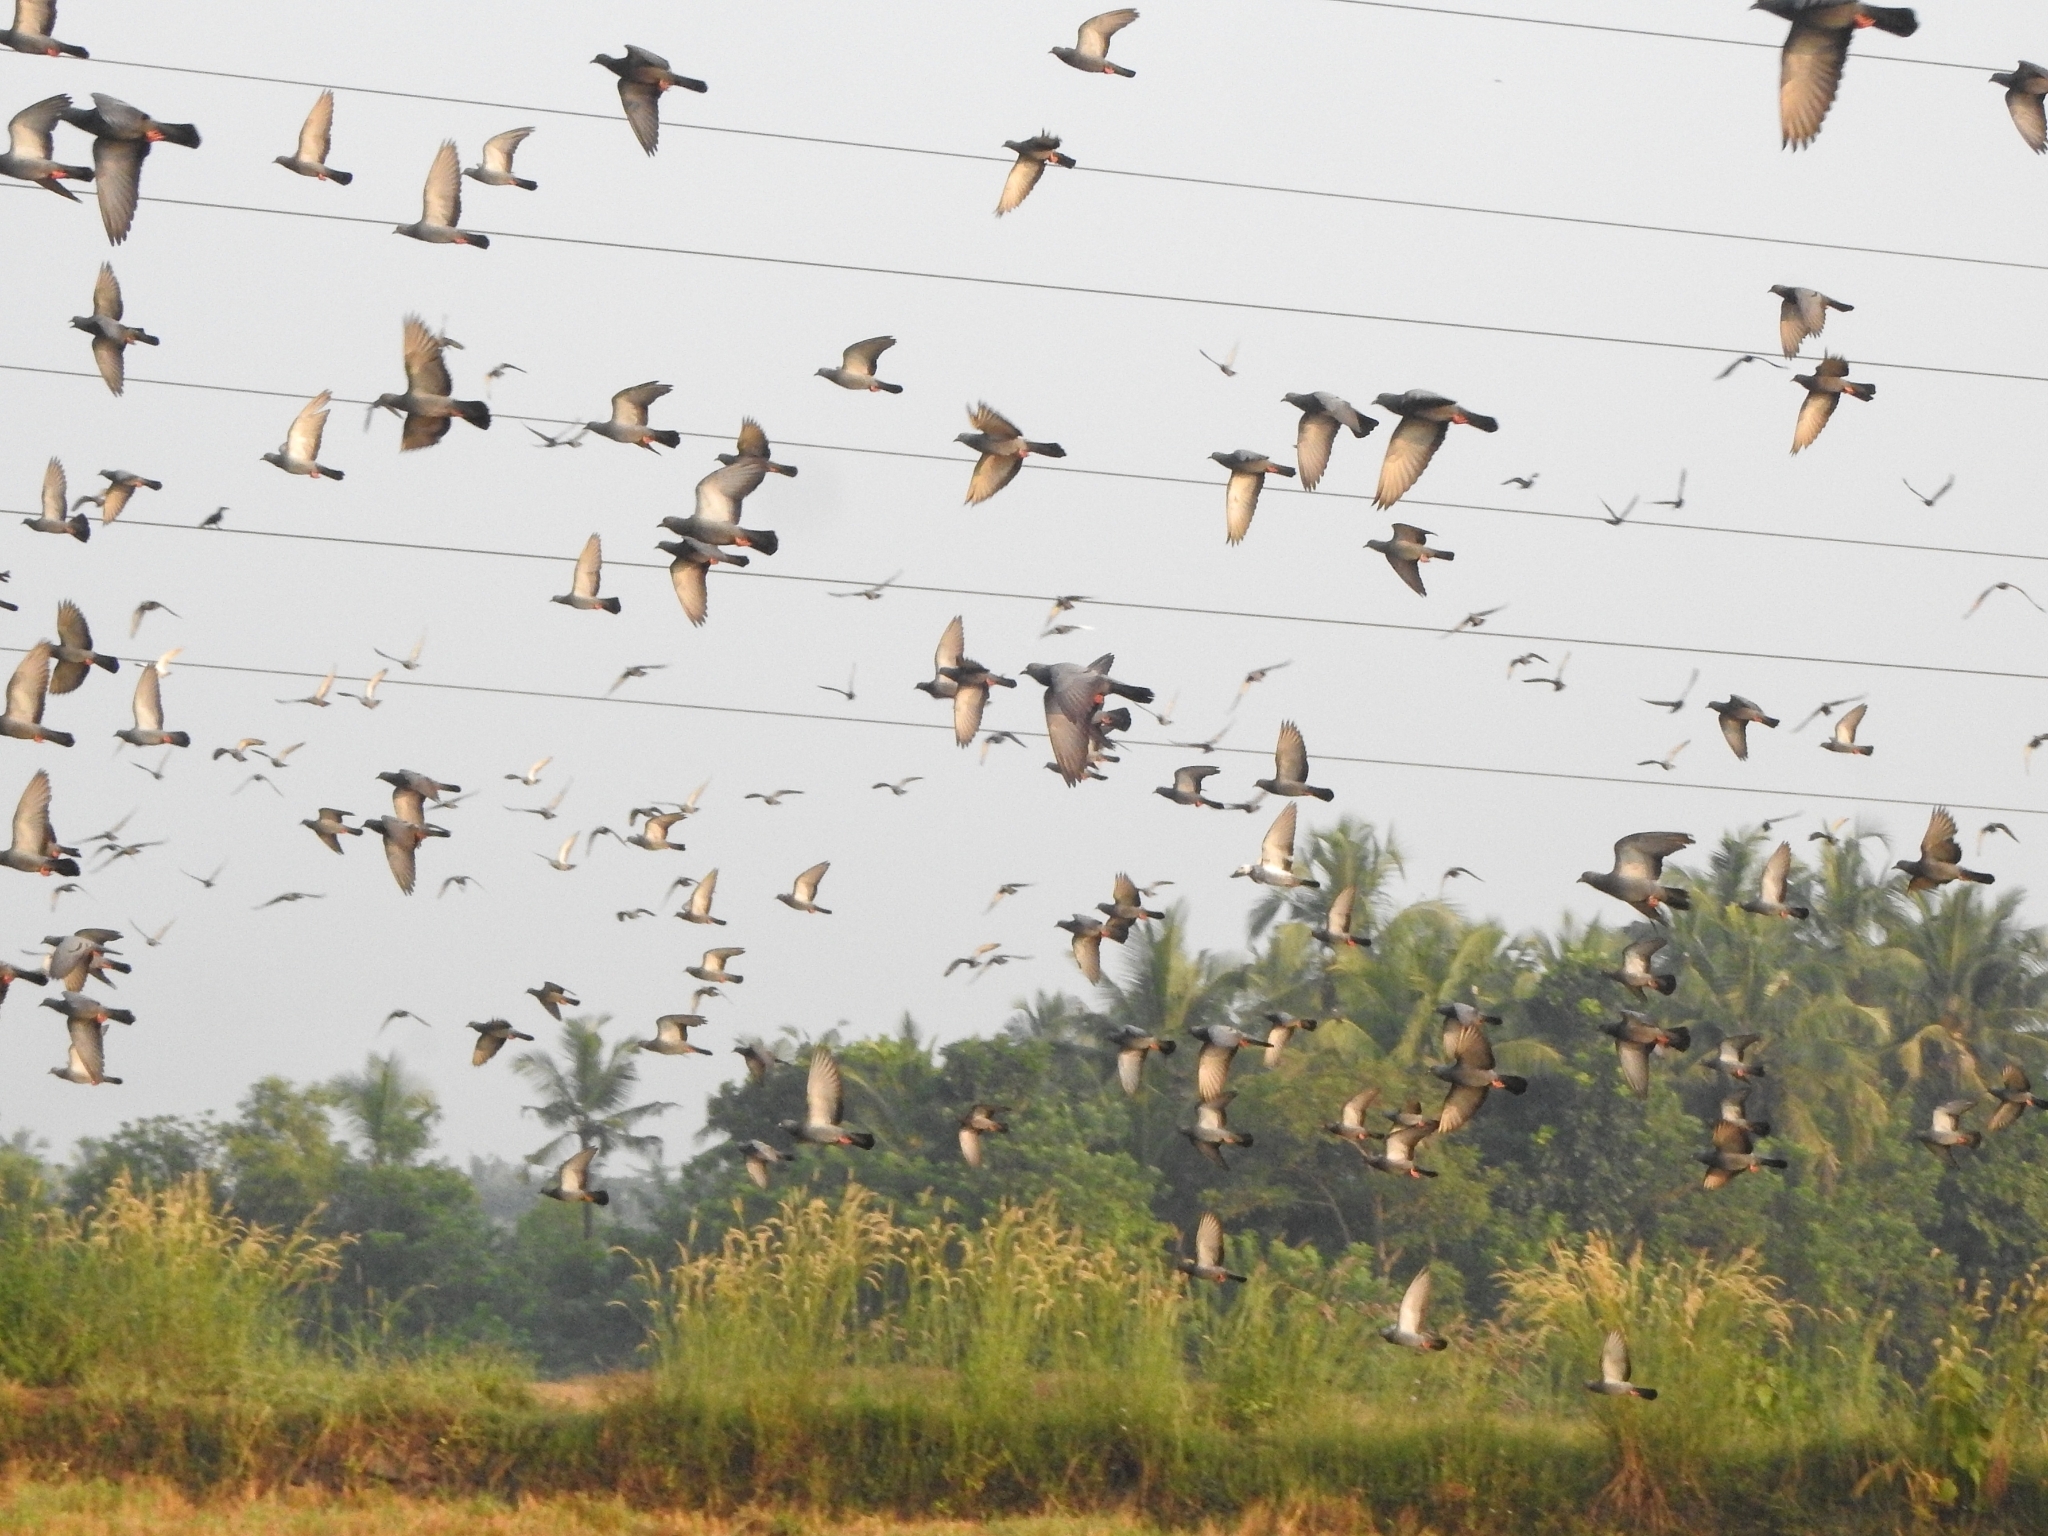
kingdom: Animalia
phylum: Chordata
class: Aves
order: Columbiformes
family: Columbidae
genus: Columba
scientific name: Columba livia
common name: Rock pigeon
